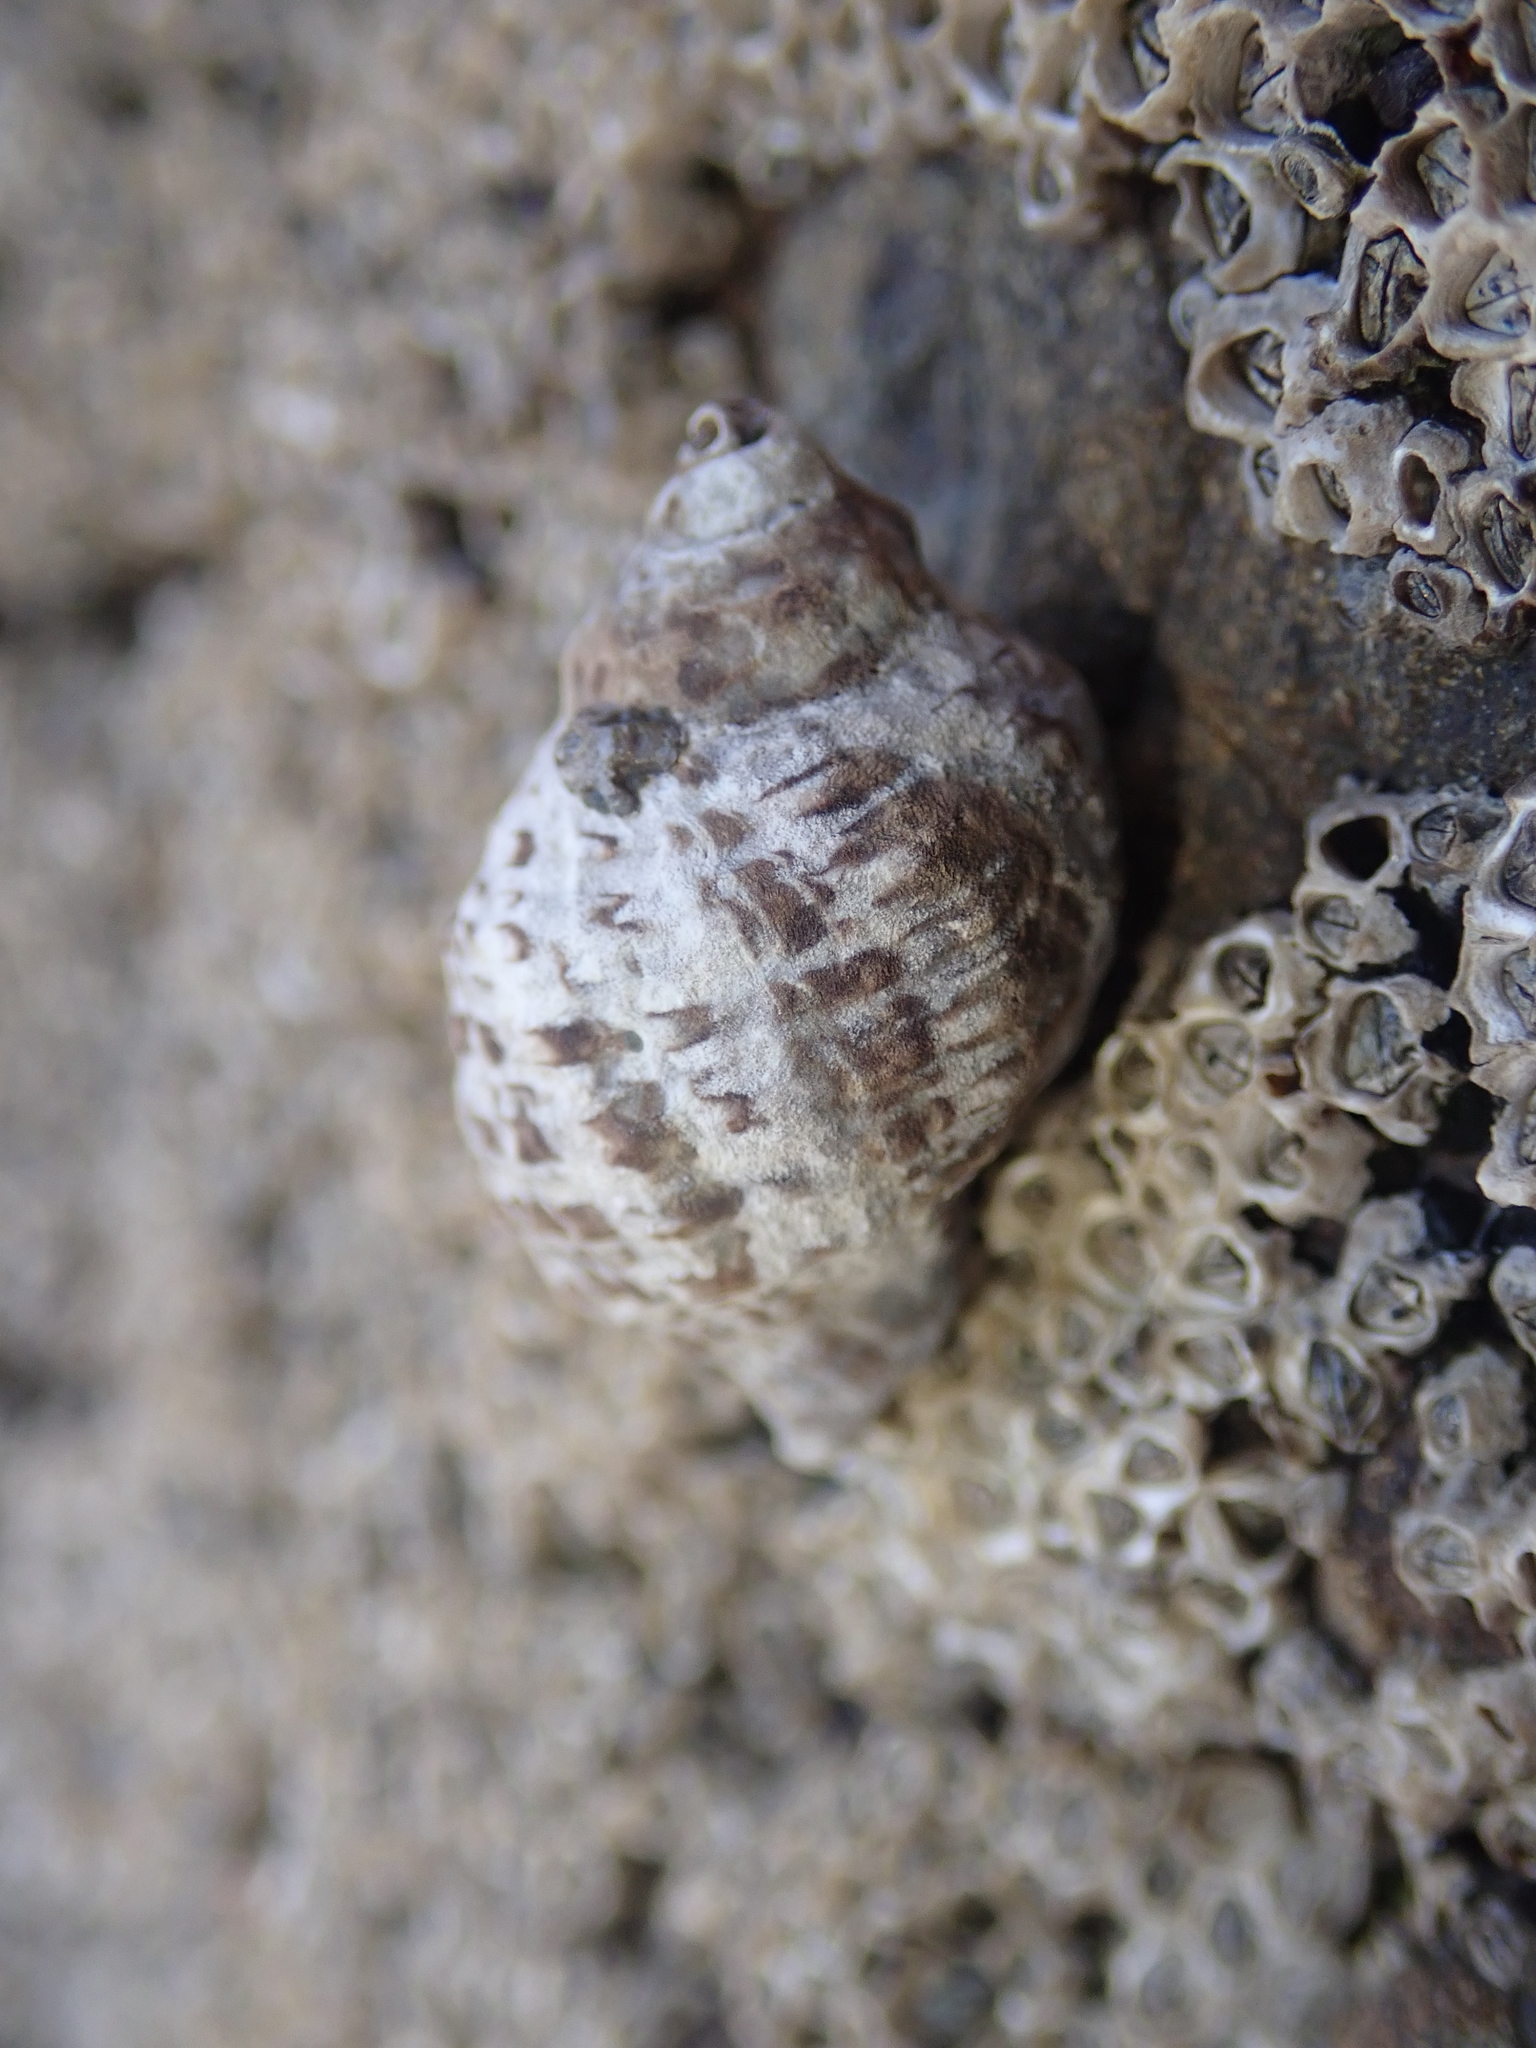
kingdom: Animalia
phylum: Mollusca
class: Gastropoda
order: Neogastropoda
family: Muricidae
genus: Haustrum
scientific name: Haustrum scobina
